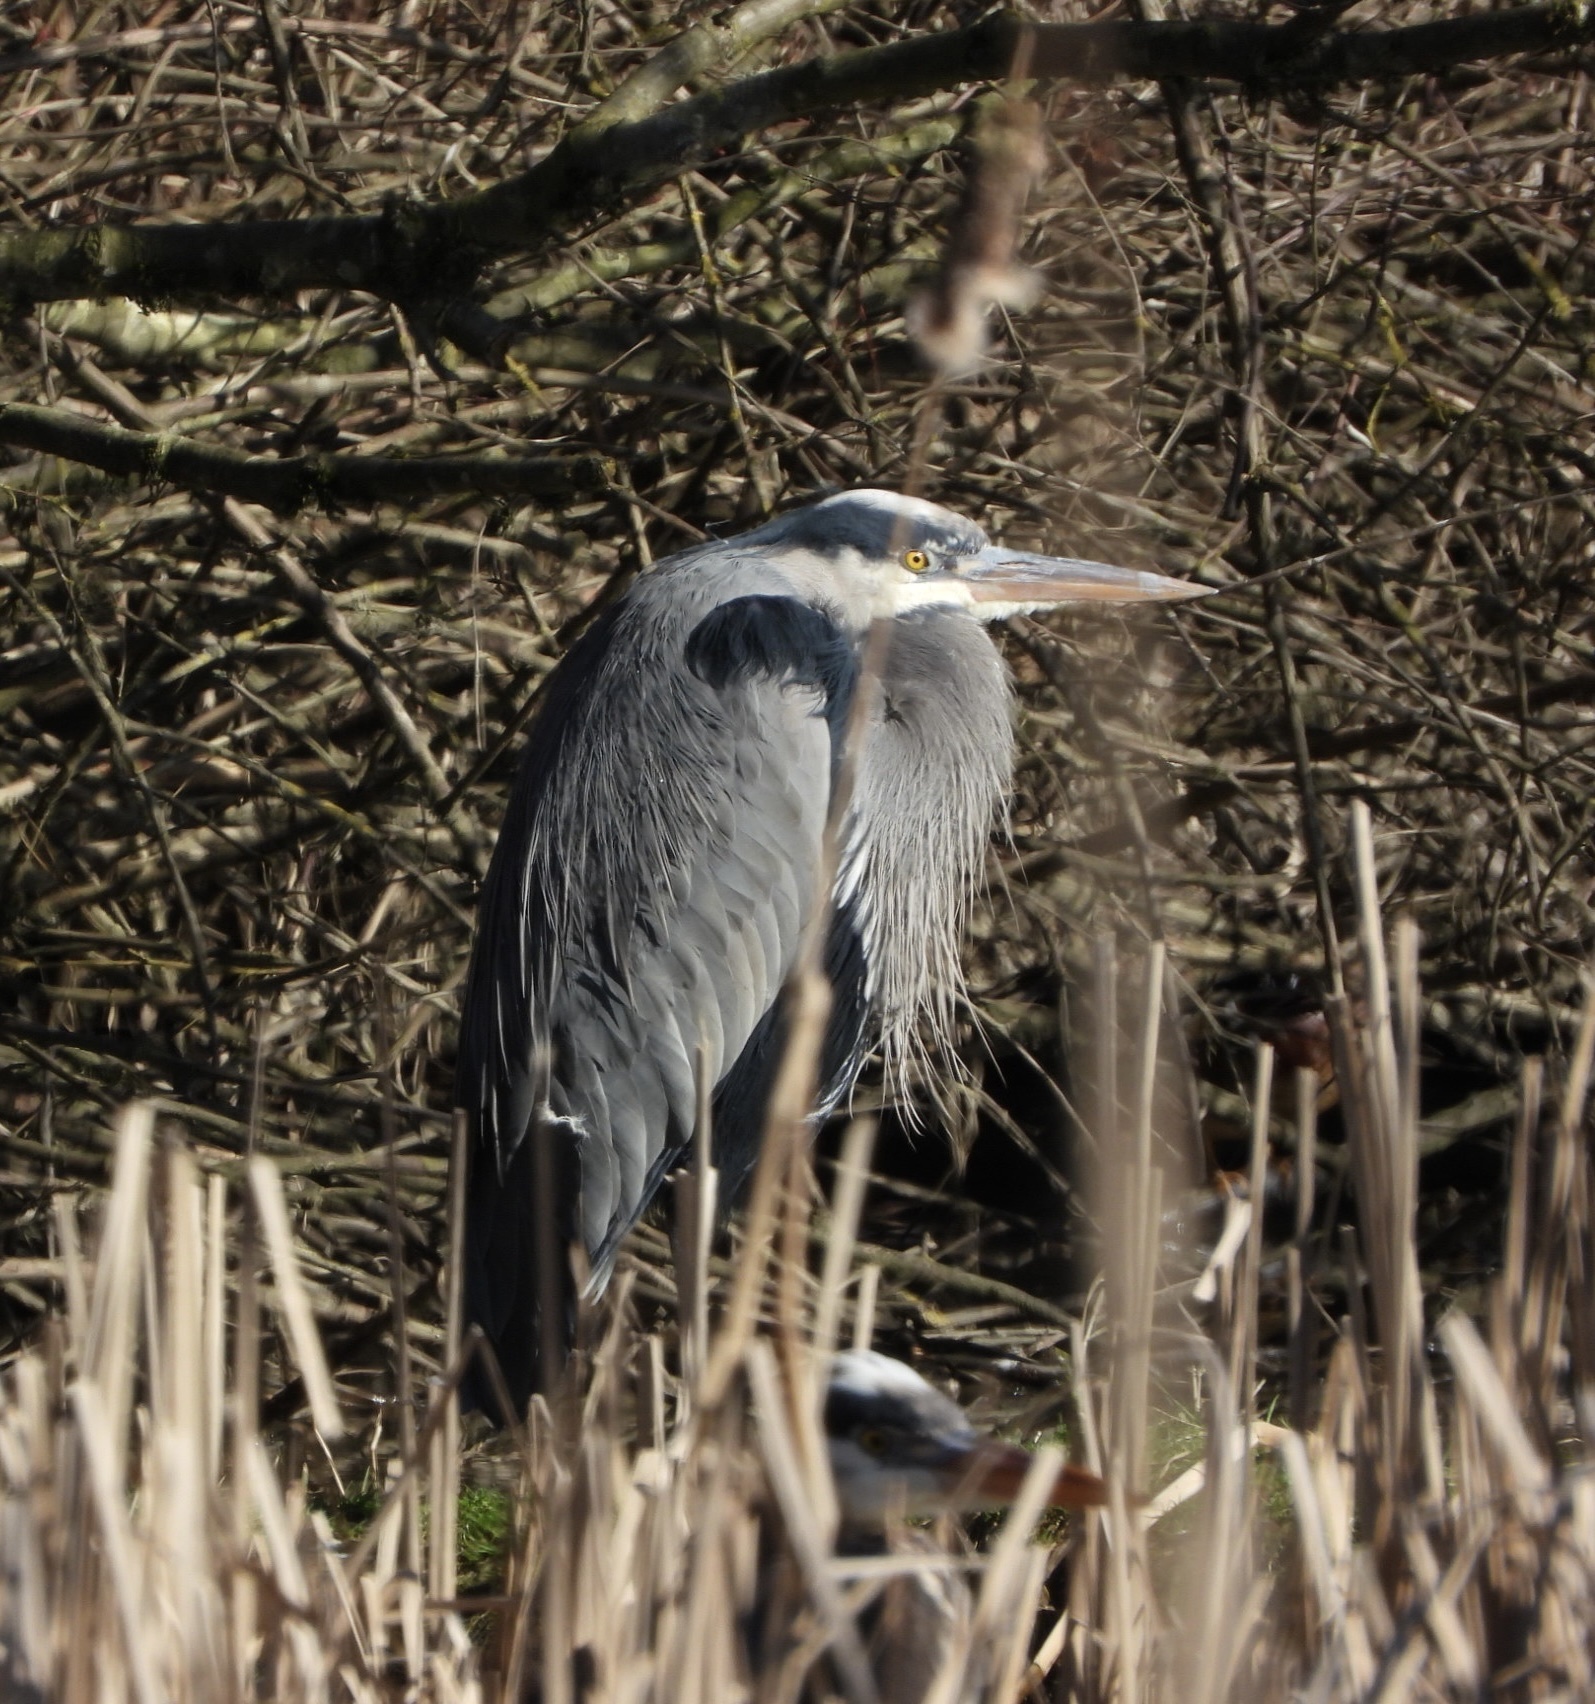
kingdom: Animalia
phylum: Chordata
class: Aves
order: Pelecaniformes
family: Ardeidae
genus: Ardea
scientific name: Ardea herodias
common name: Great blue heron
